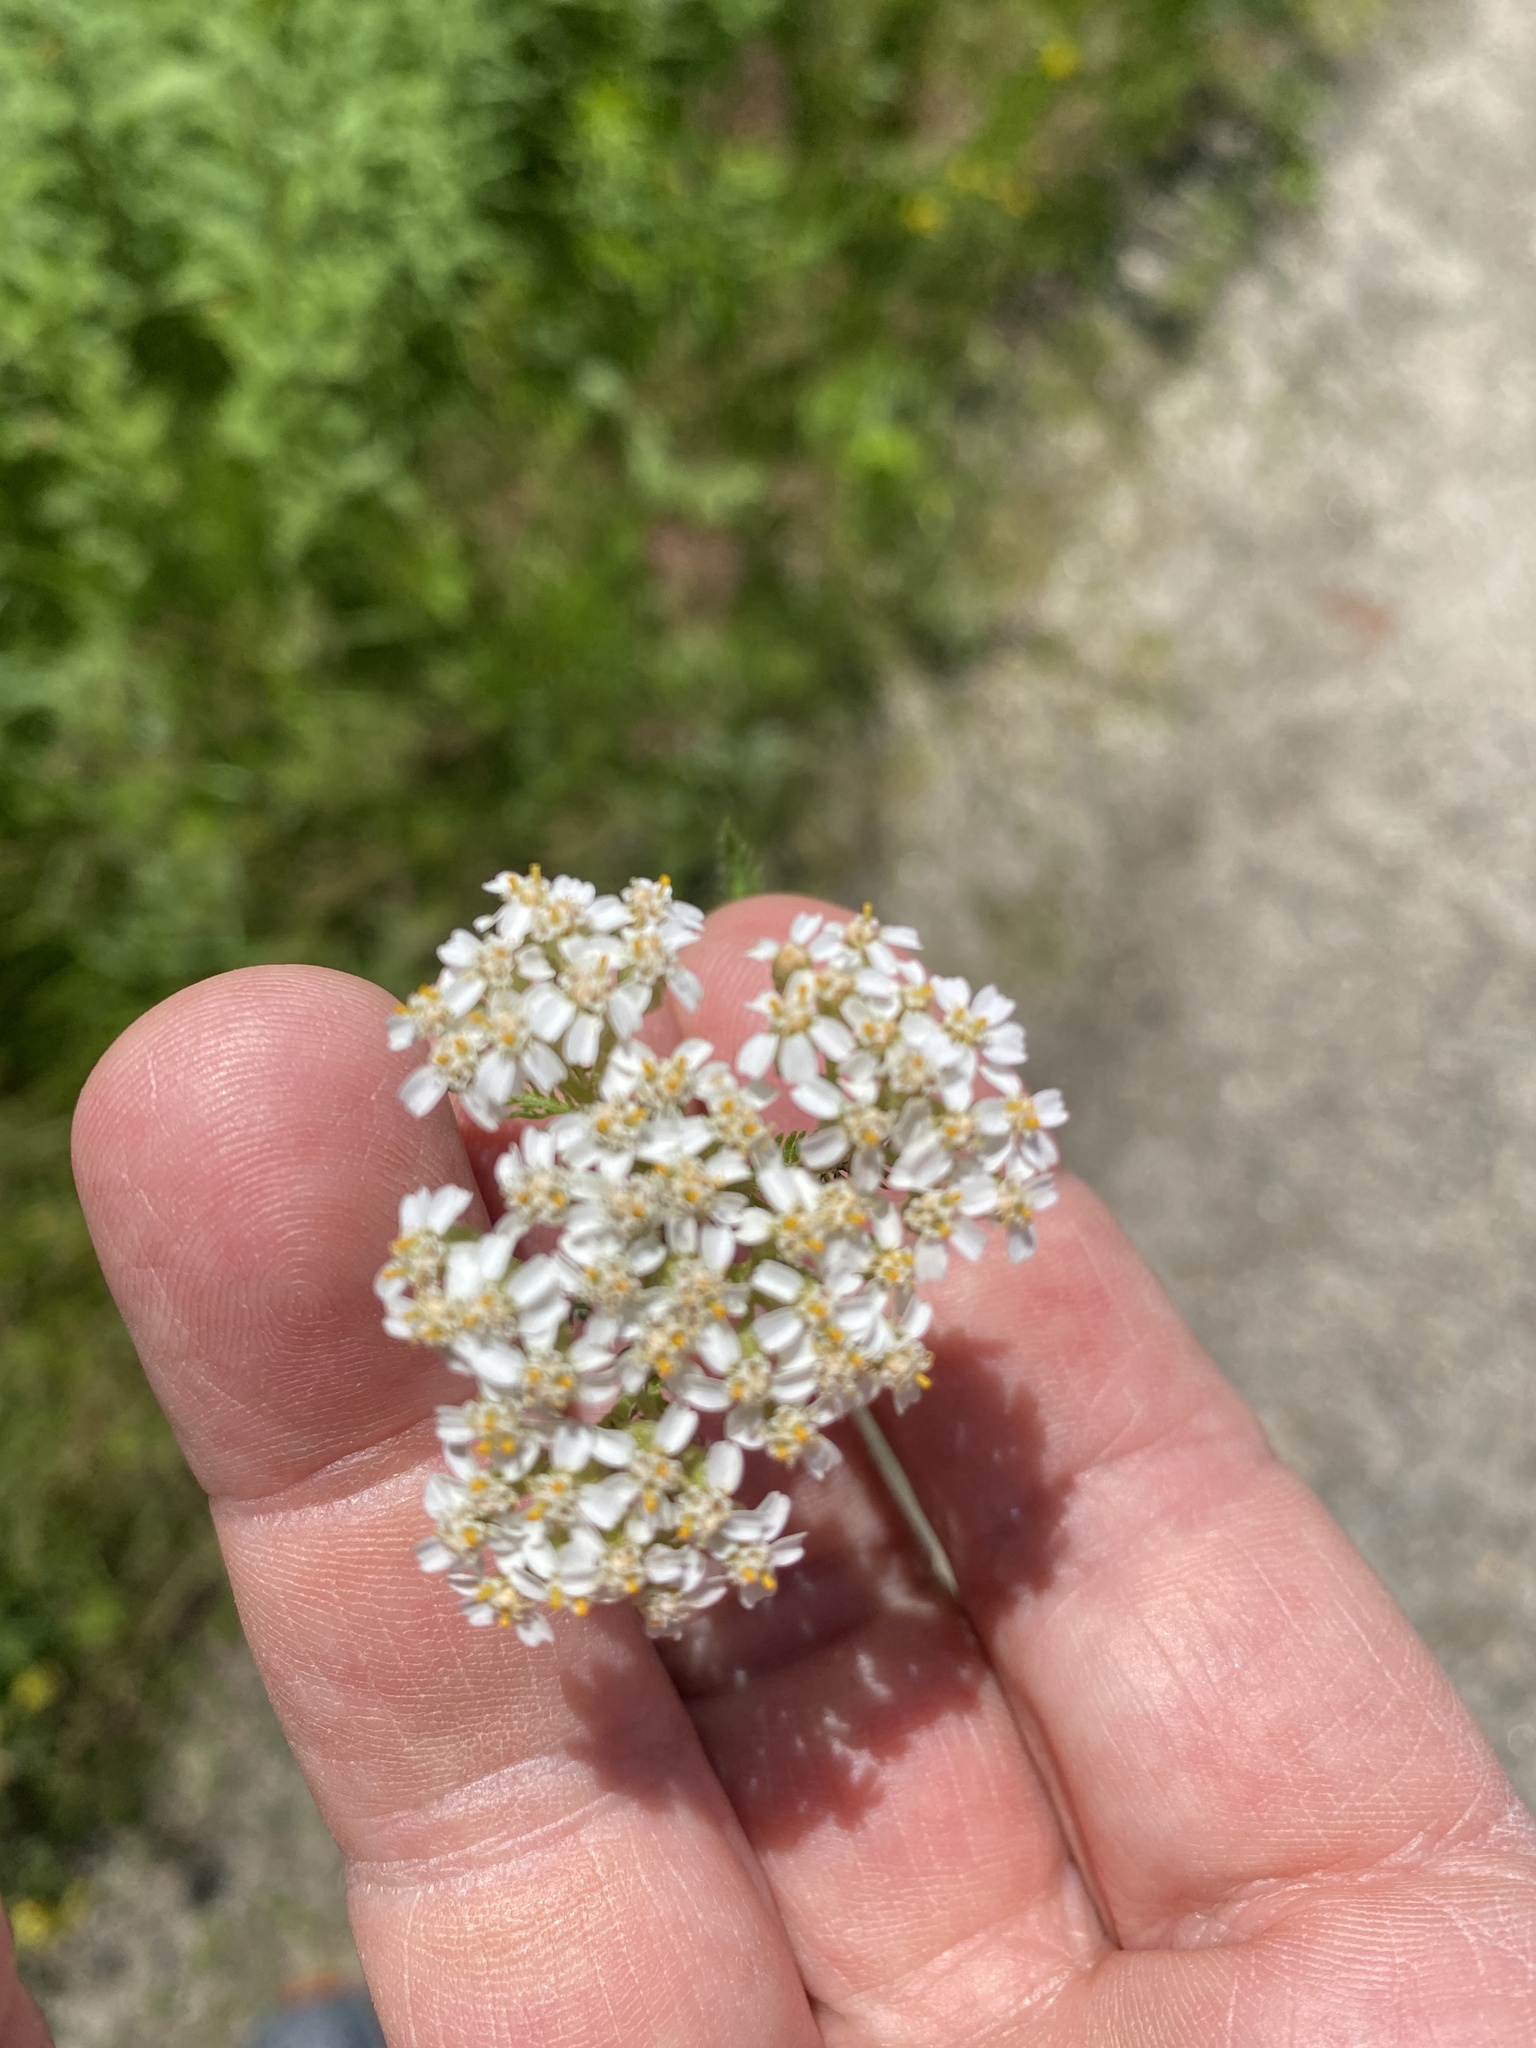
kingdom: Plantae
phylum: Tracheophyta
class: Magnoliopsida
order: Asterales
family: Asteraceae
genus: Achillea
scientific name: Achillea millefolium
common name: Yarrow
